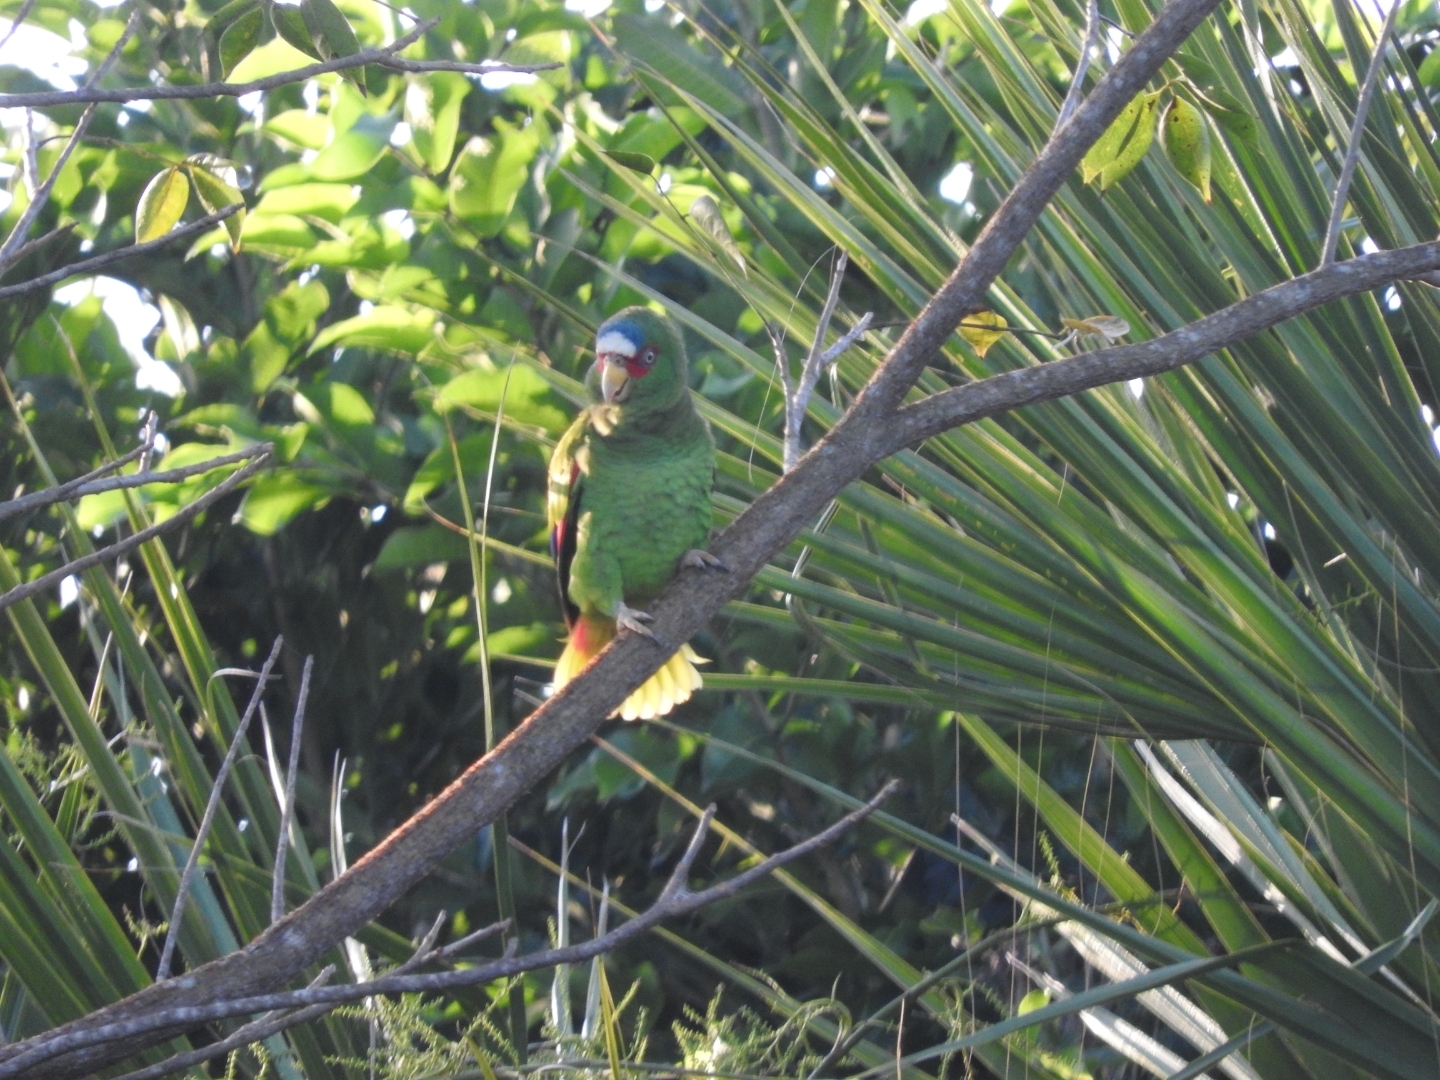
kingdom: Animalia
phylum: Chordata
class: Aves
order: Psittaciformes
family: Psittacidae
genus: Amazona
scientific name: Amazona albifrons
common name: White-fronted amazon
